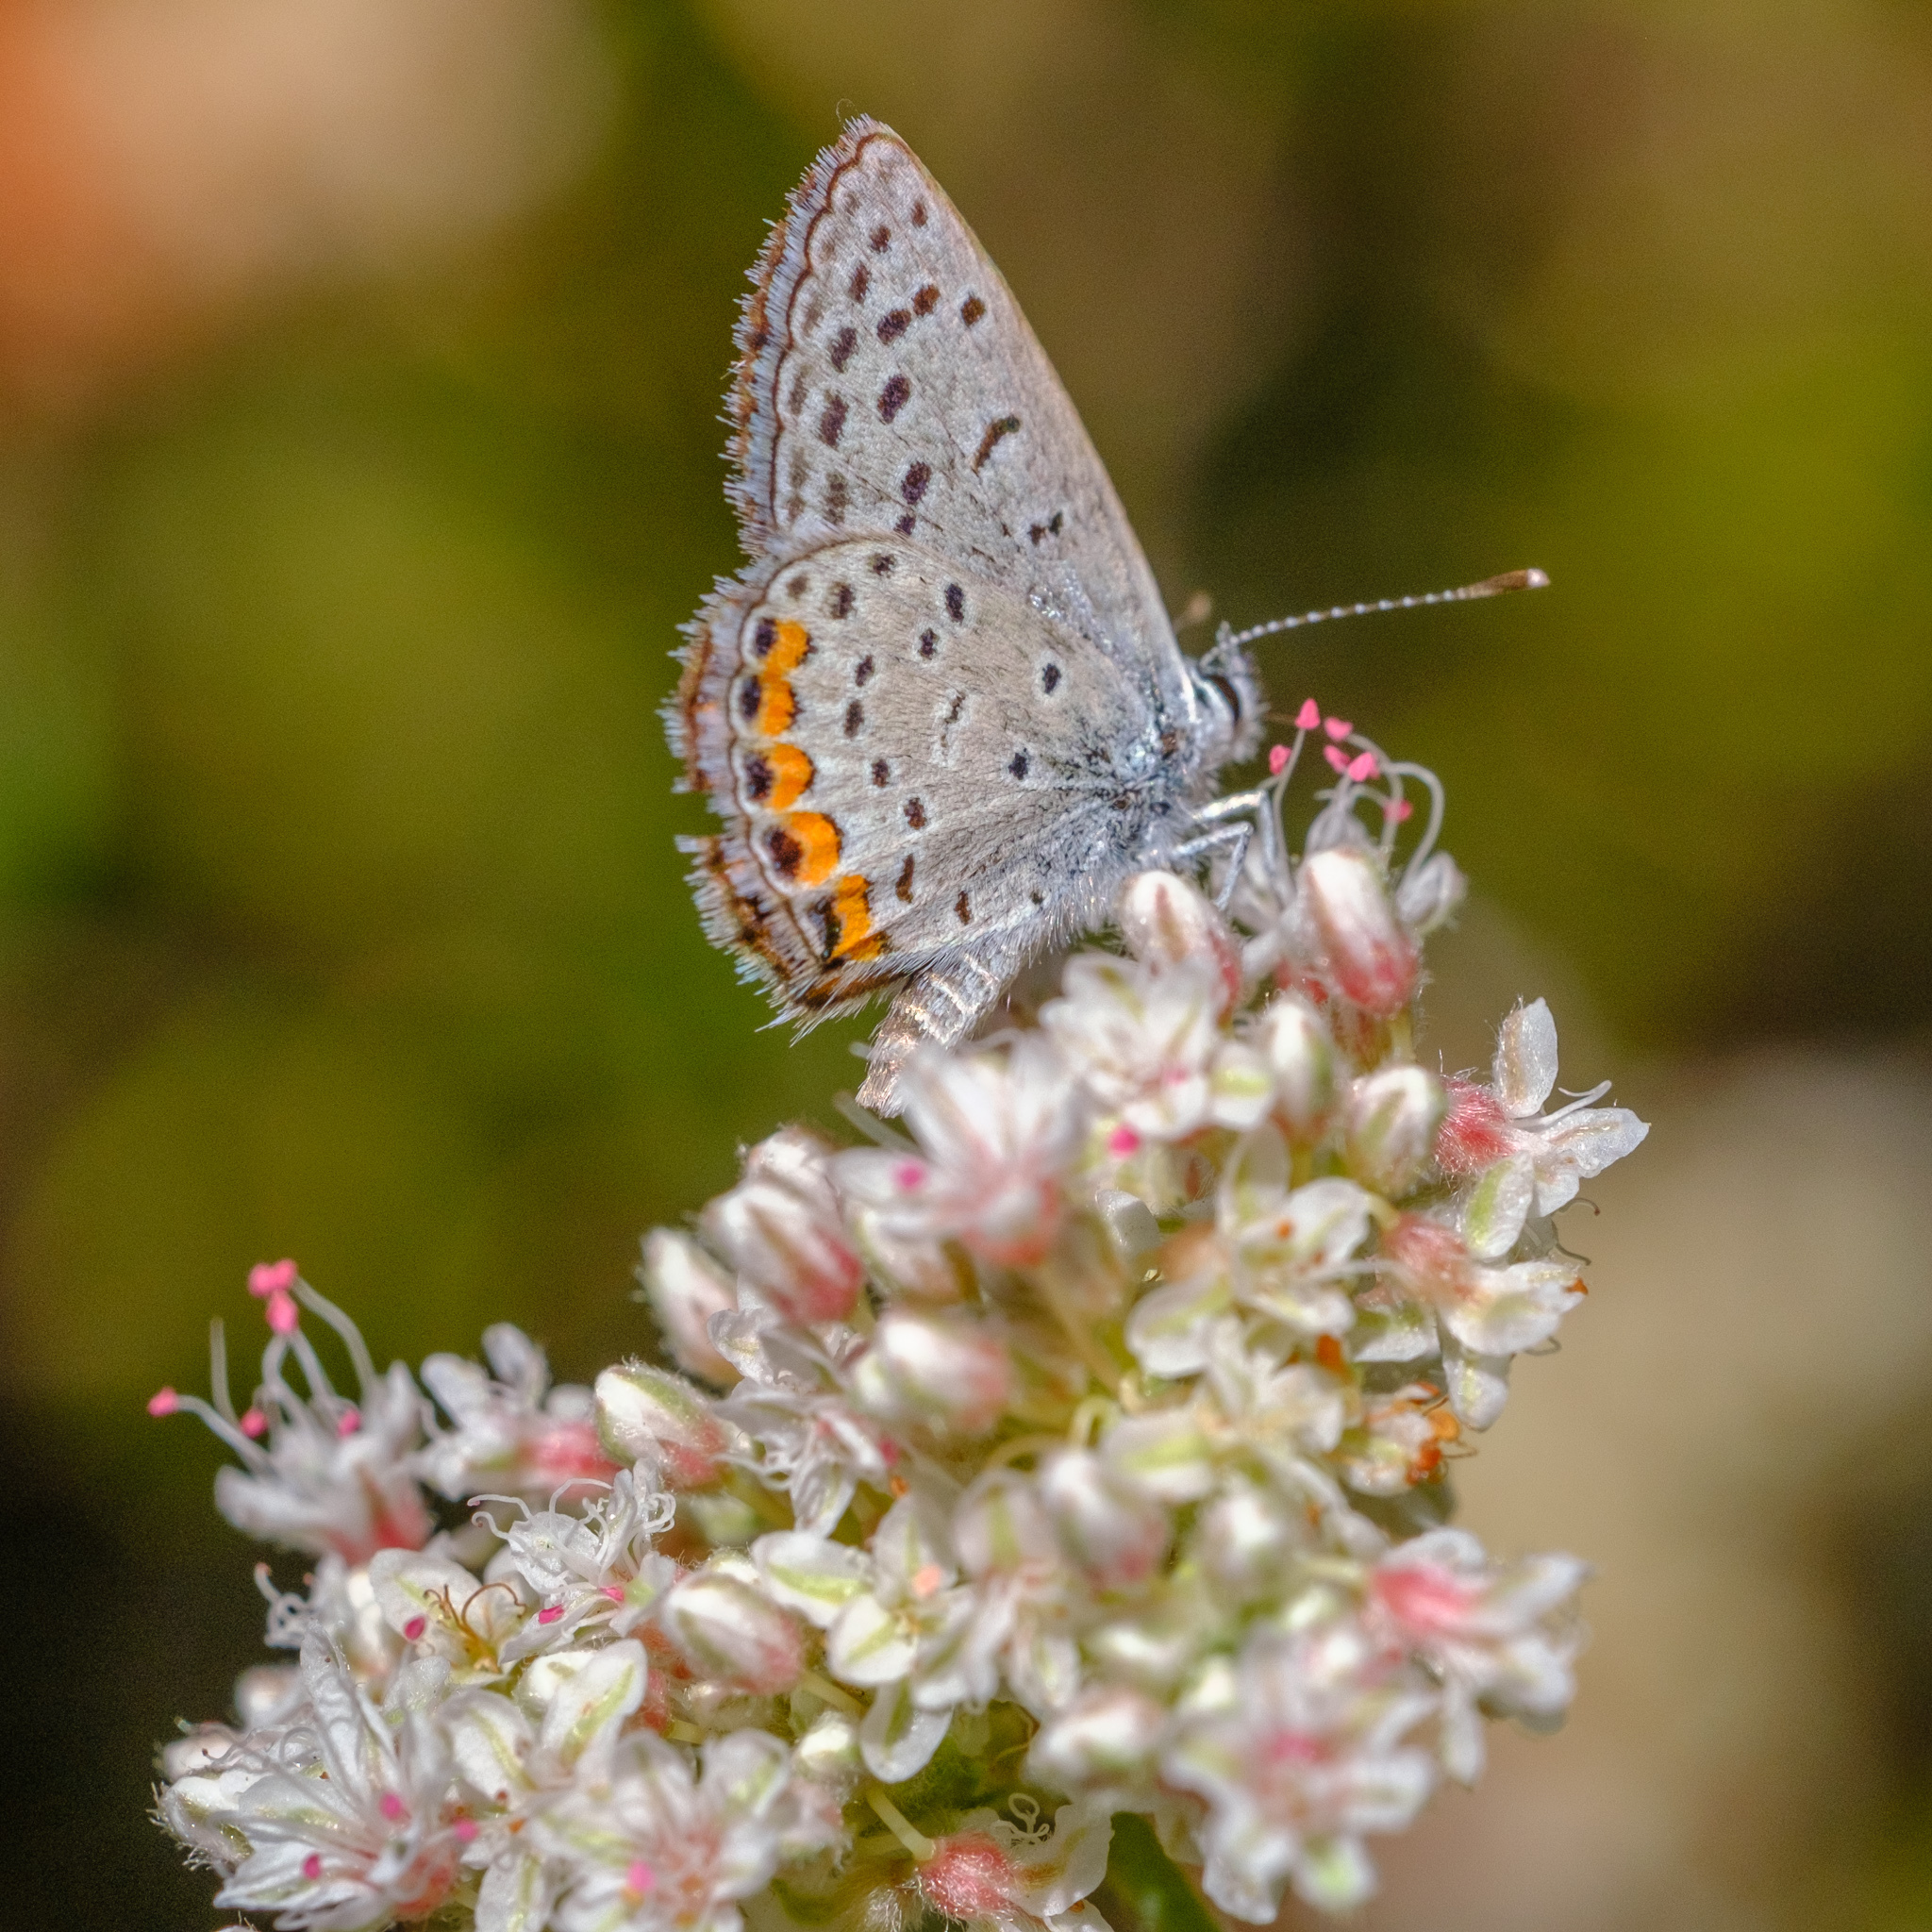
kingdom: Animalia
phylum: Arthropoda
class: Insecta
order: Lepidoptera
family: Lycaenidae
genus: Icaricia
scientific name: Icaricia acmon
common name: Acmon blue
